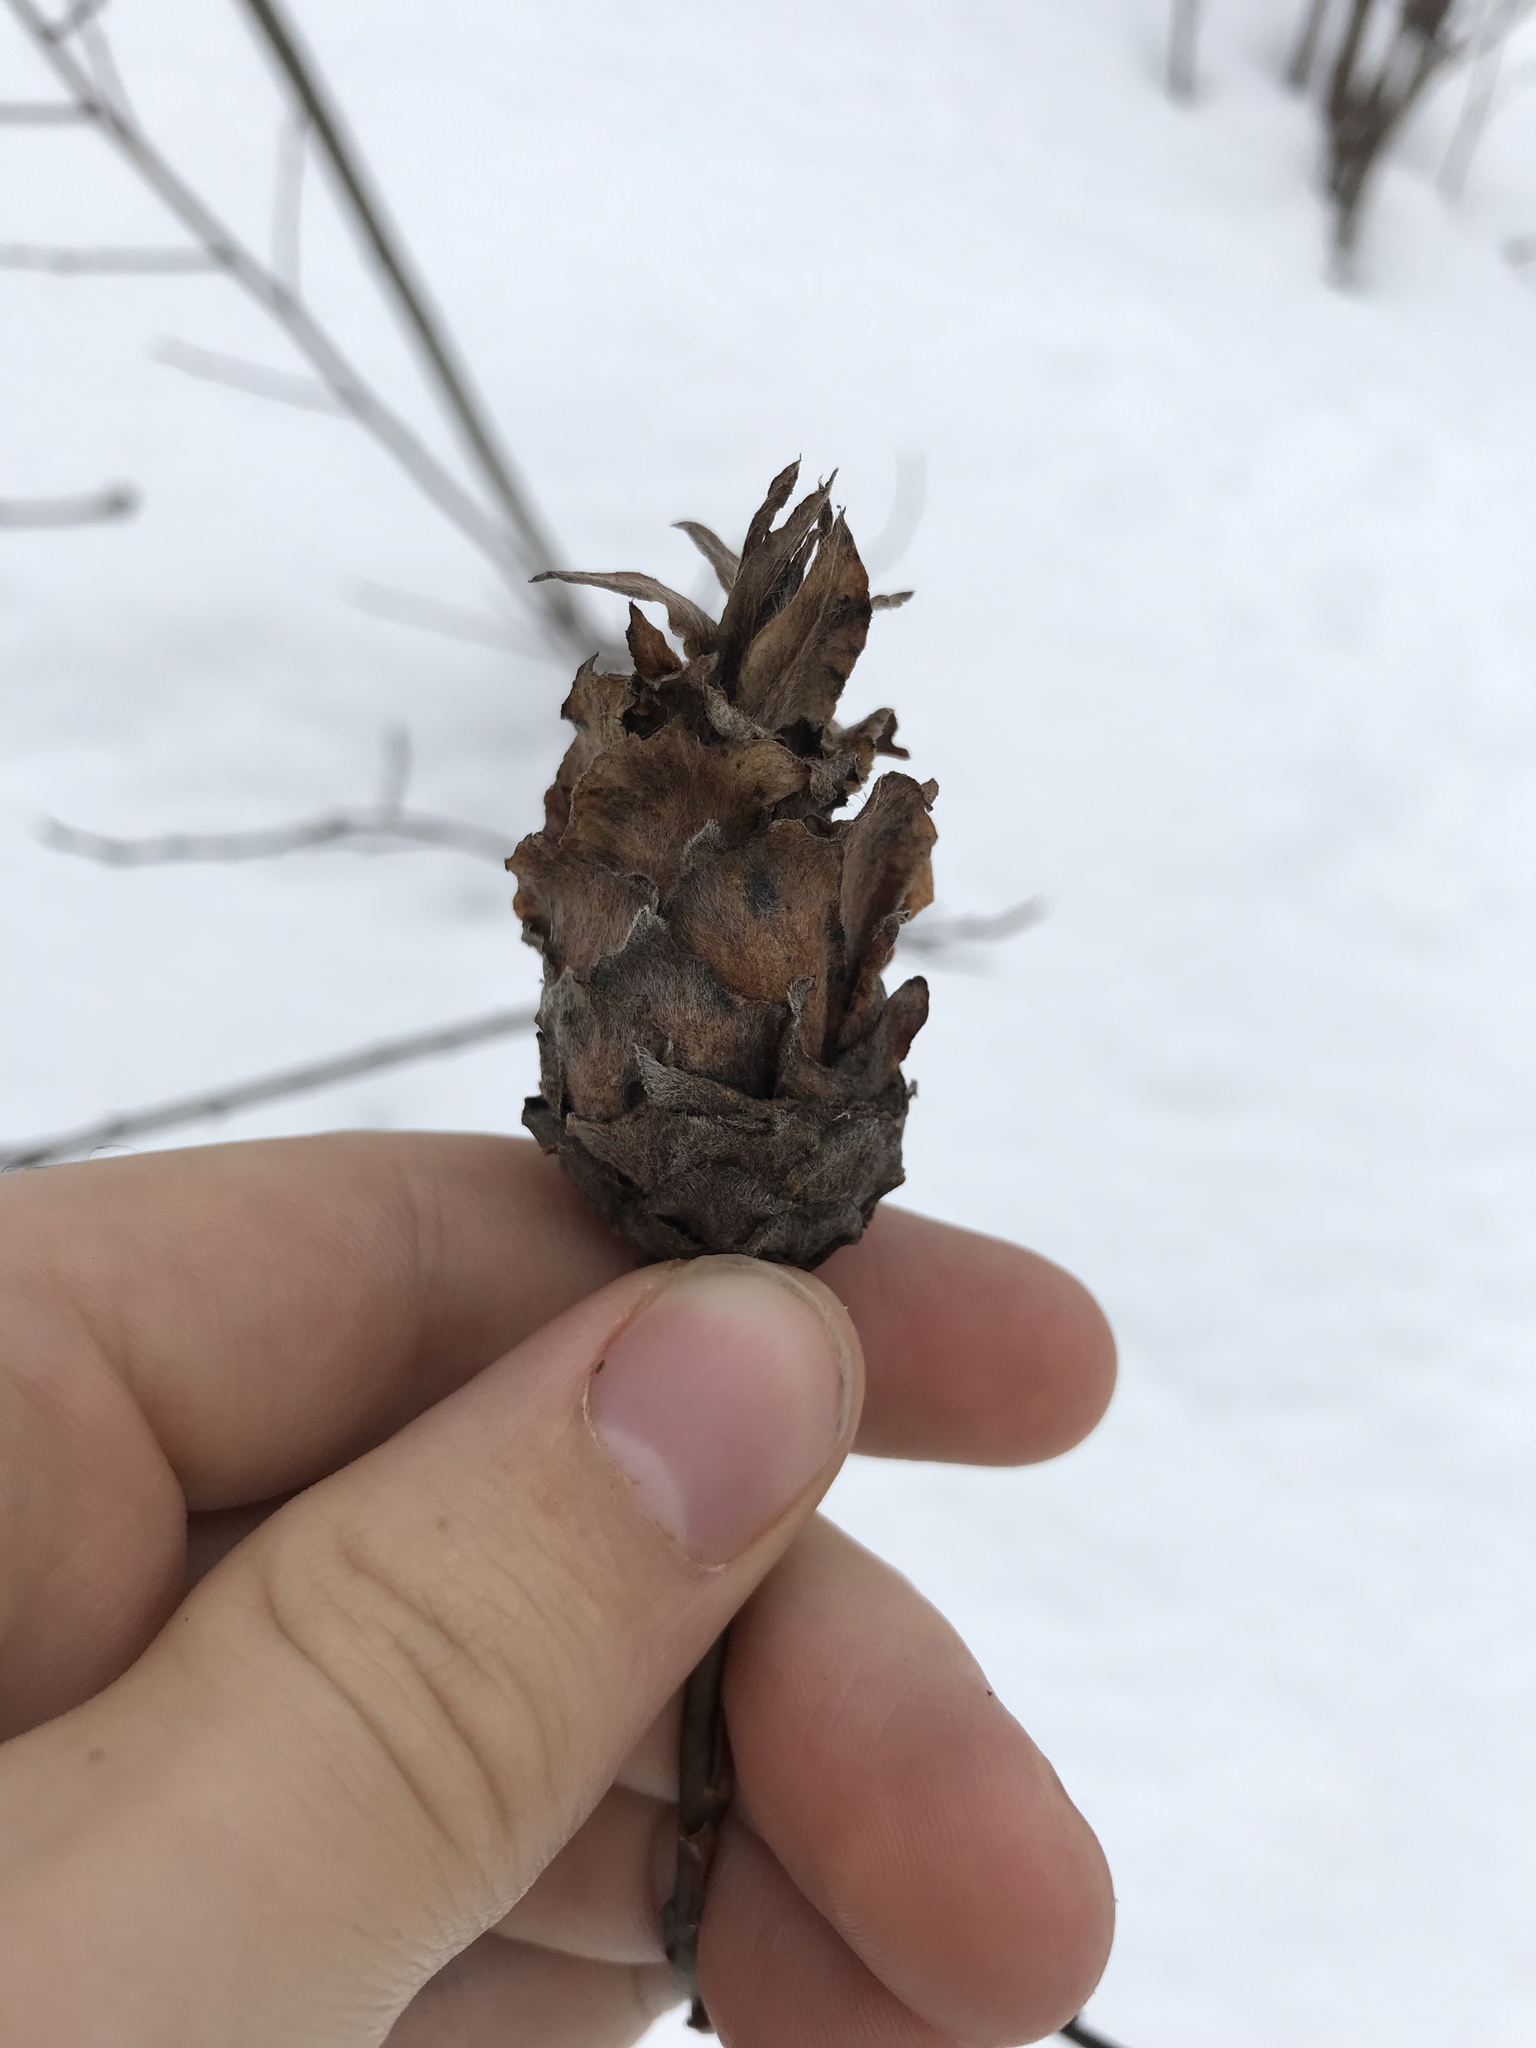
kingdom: Animalia
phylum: Arthropoda
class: Insecta
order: Diptera
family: Cecidomyiidae
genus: Rabdophaga
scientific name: Rabdophaga strobiloides
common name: Willow pinecone gall midge
